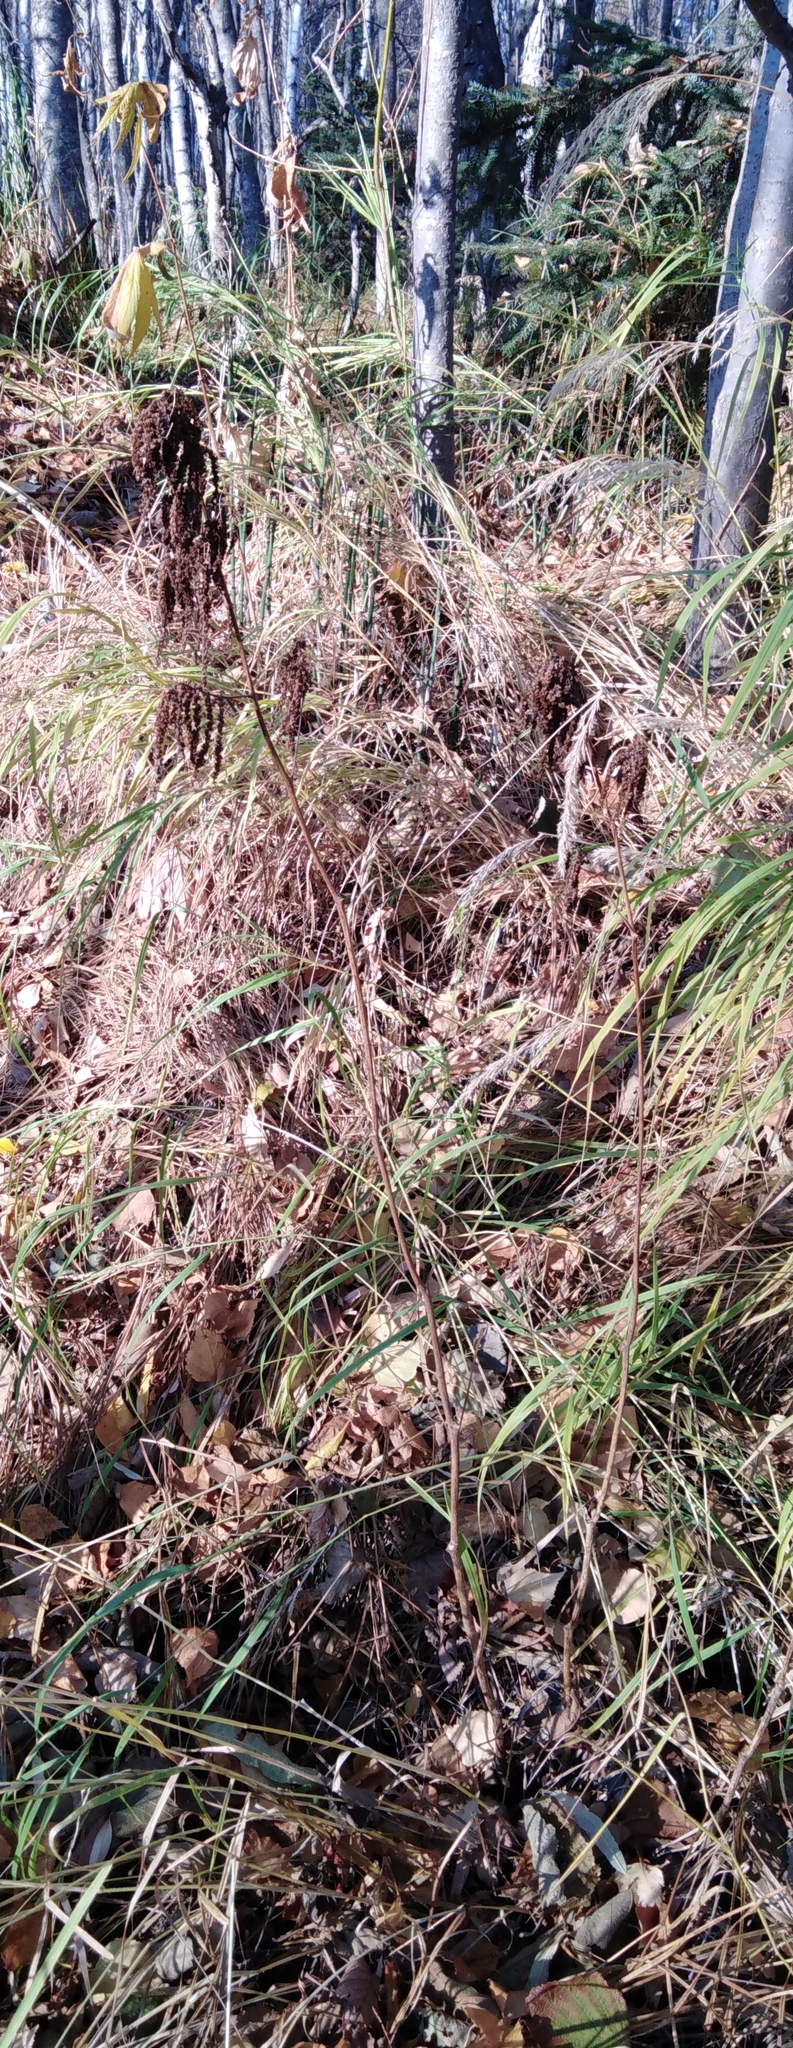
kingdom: Plantae
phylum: Tracheophyta
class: Magnoliopsida
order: Rosales
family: Rosaceae
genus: Filipendula
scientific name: Filipendula digitata
